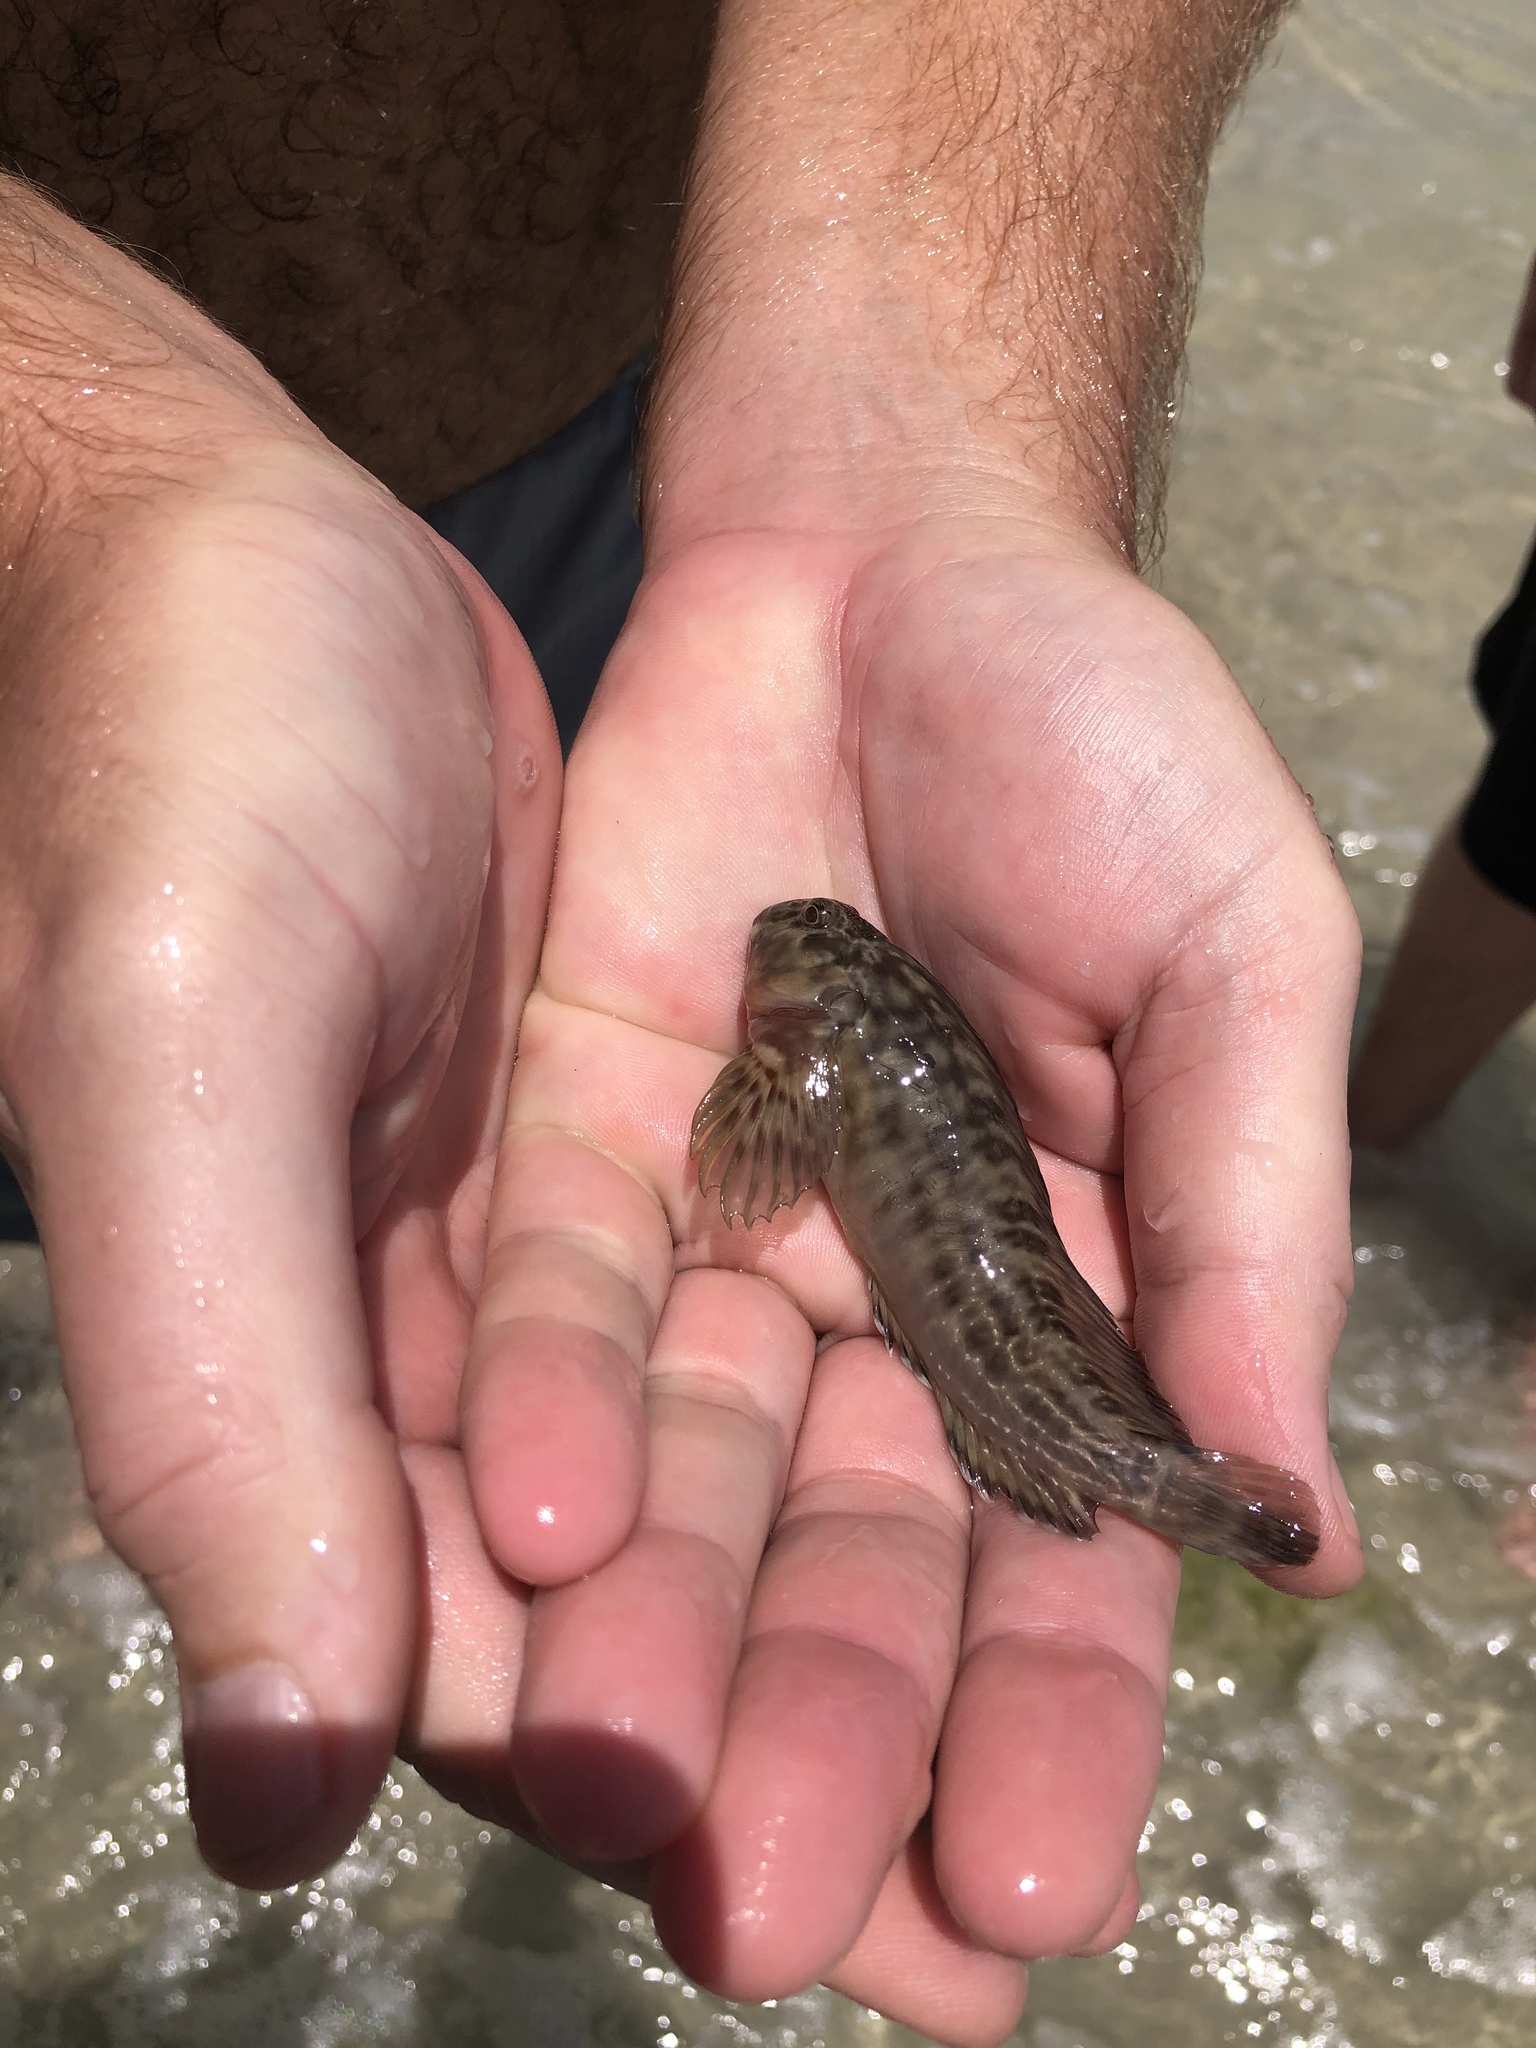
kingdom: Animalia
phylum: Chordata
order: Perciformes
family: Blenniidae
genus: Scartella
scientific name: Scartella cristata
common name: Molly miller
